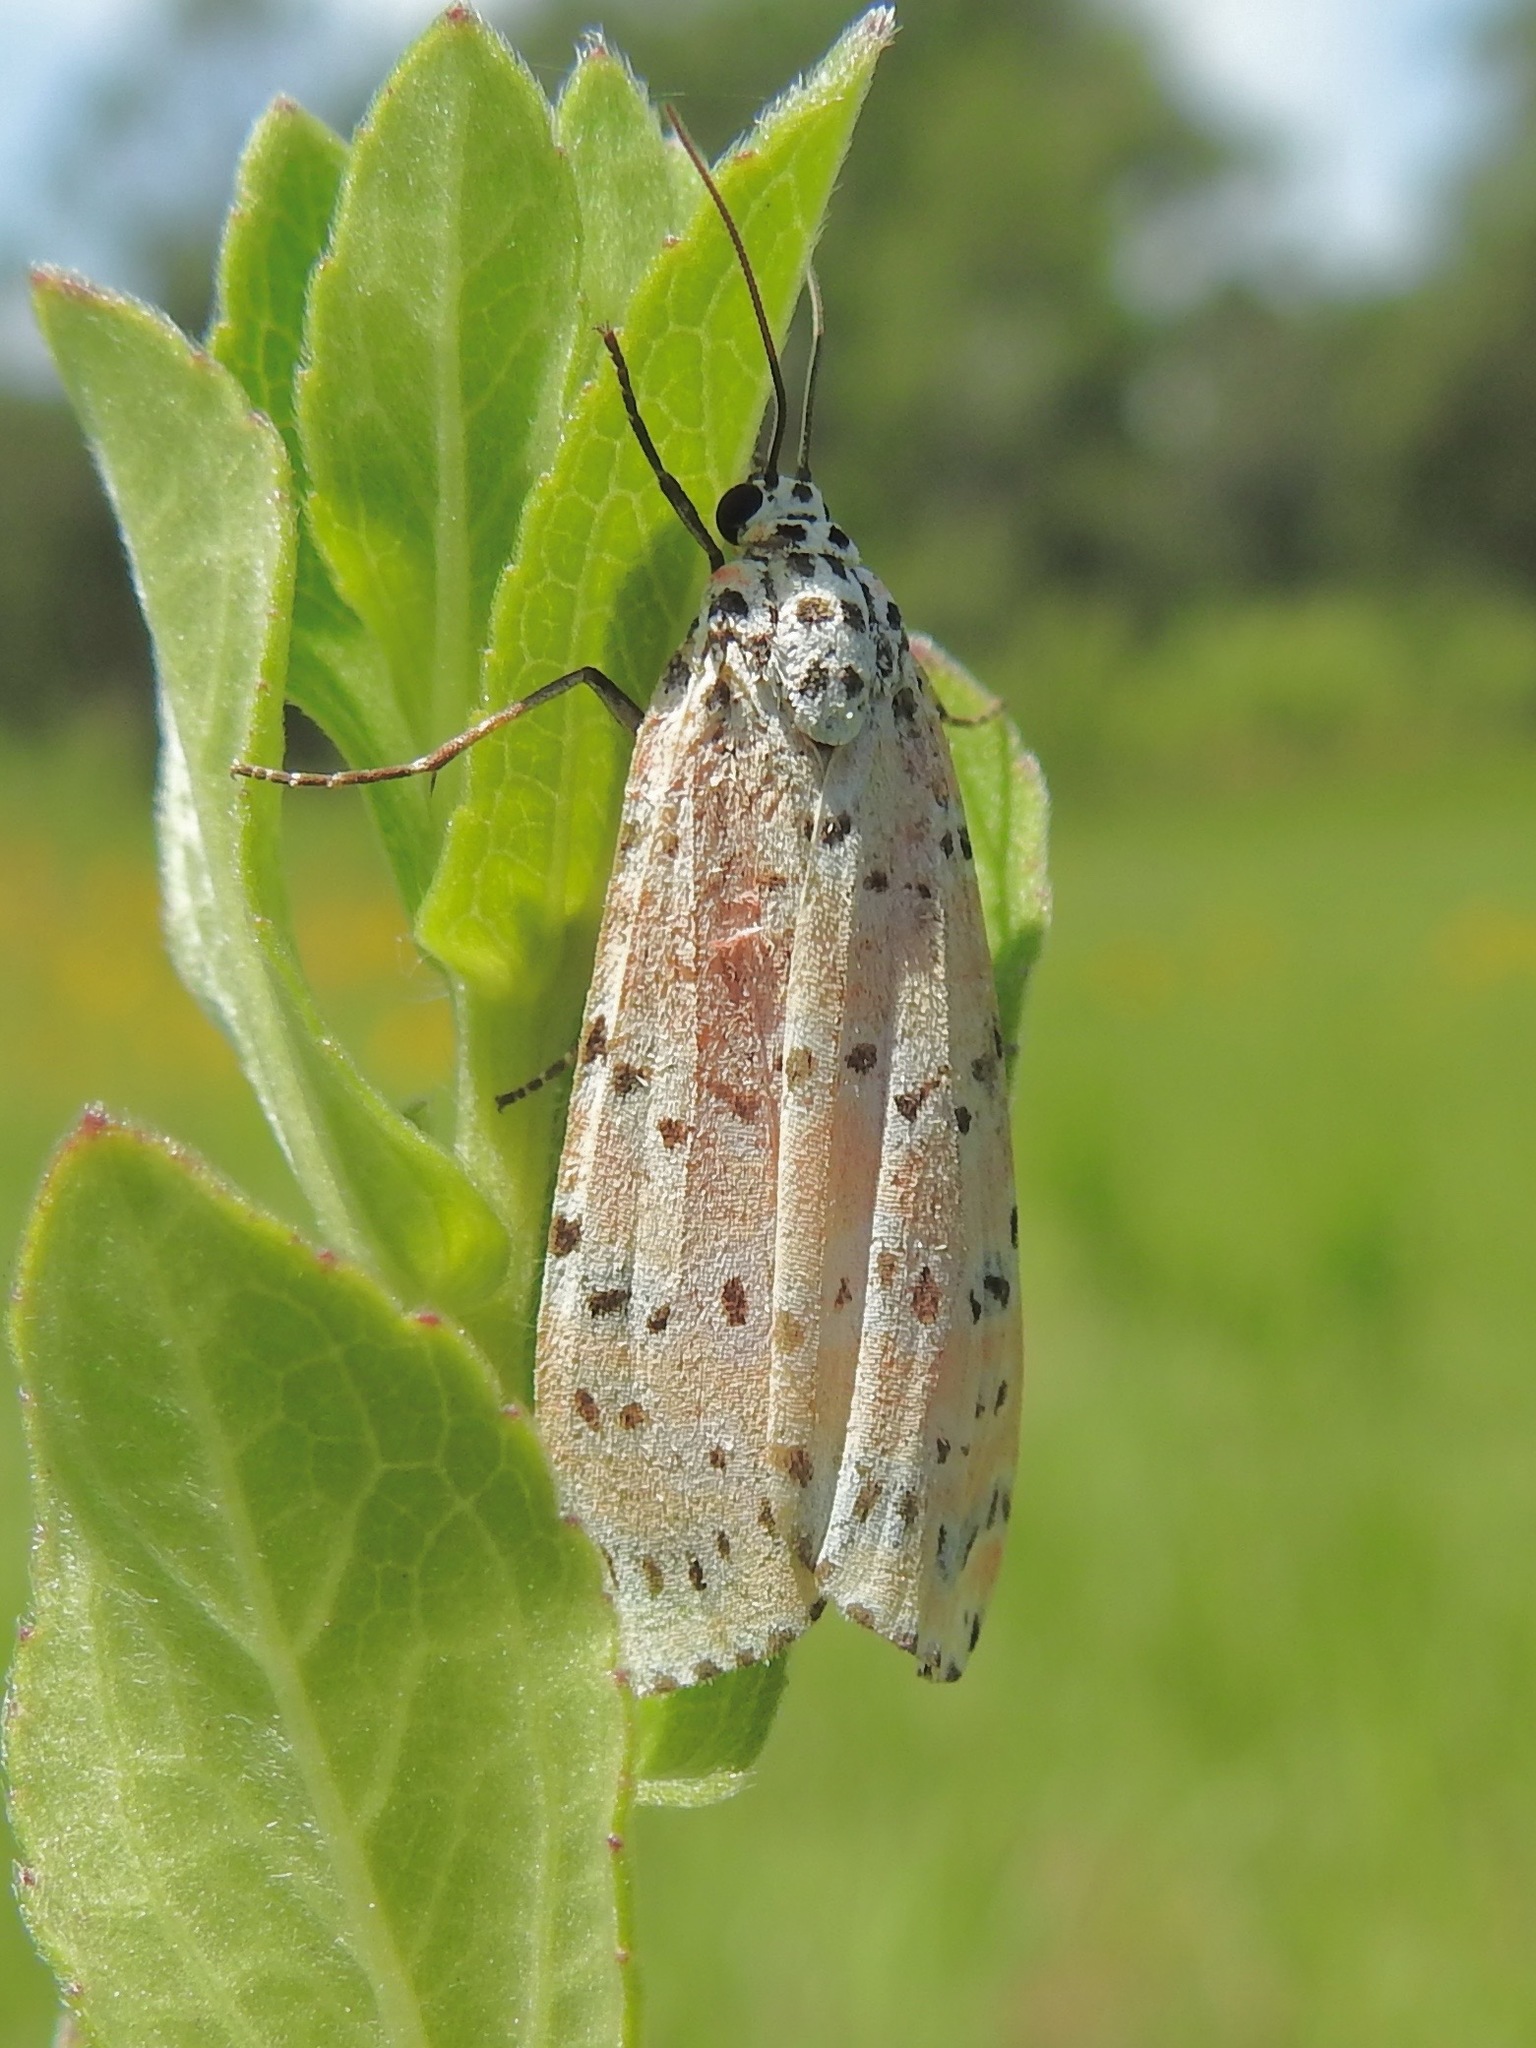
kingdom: Animalia
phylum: Arthropoda
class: Insecta
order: Lepidoptera
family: Erebidae
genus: Utetheisa
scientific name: Utetheisa ornatrix
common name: Beautiful utetheisa
